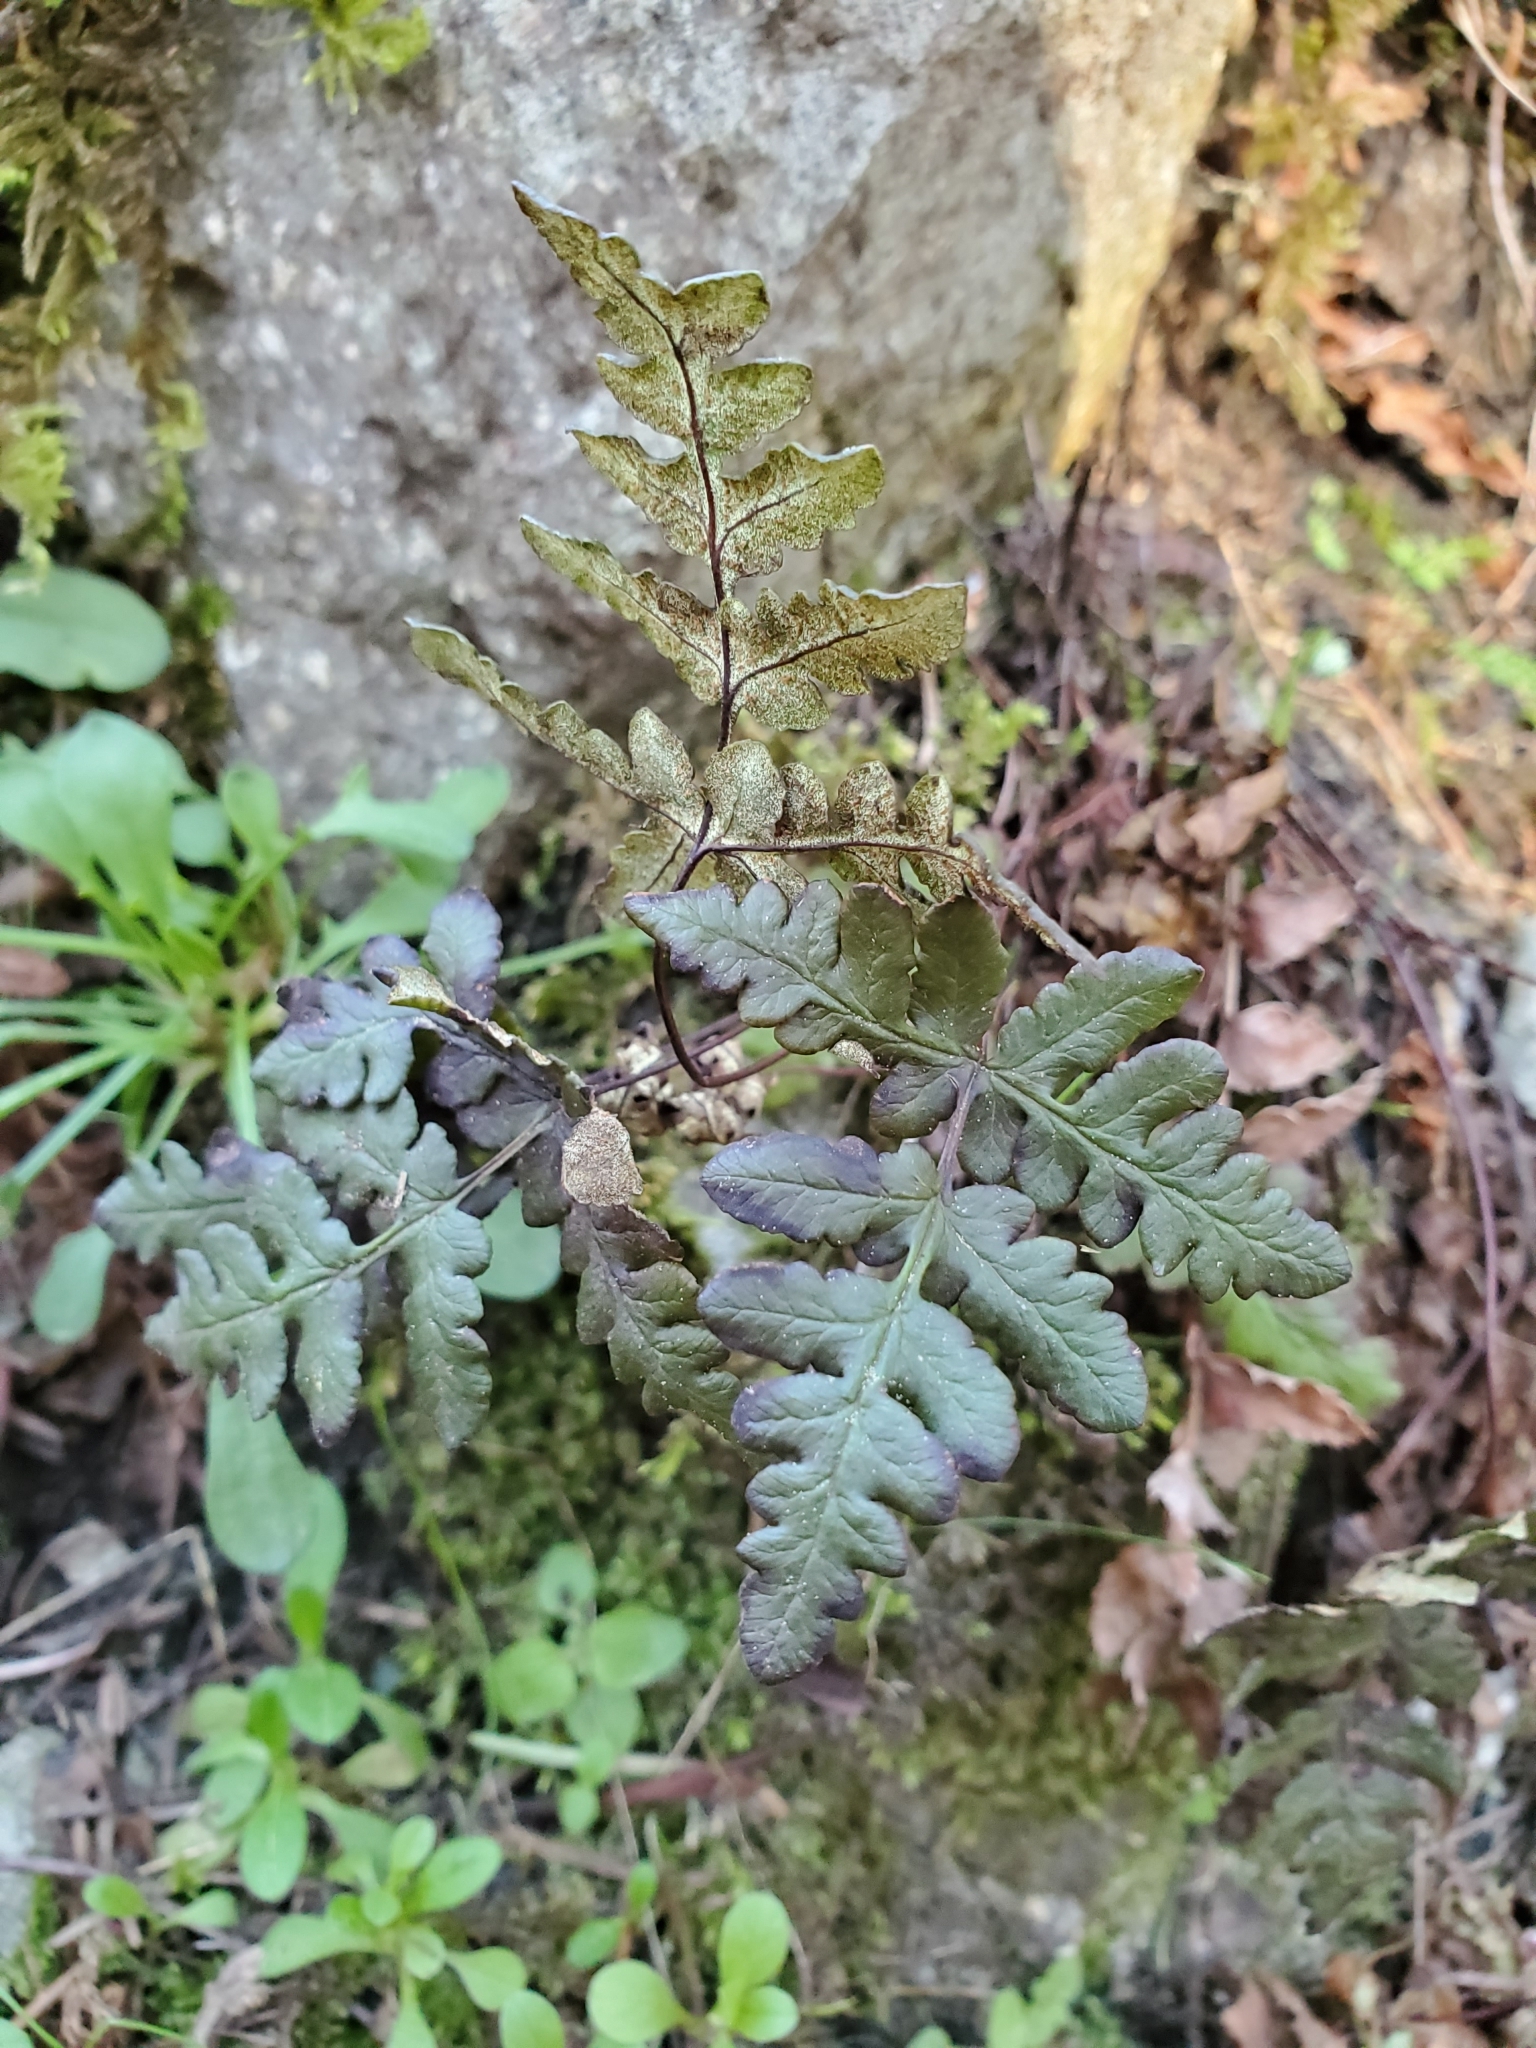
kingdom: Plantae
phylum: Tracheophyta
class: Polypodiopsida
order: Polypodiales
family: Pteridaceae
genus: Pentagramma
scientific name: Pentagramma triangularis
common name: Gold fern
